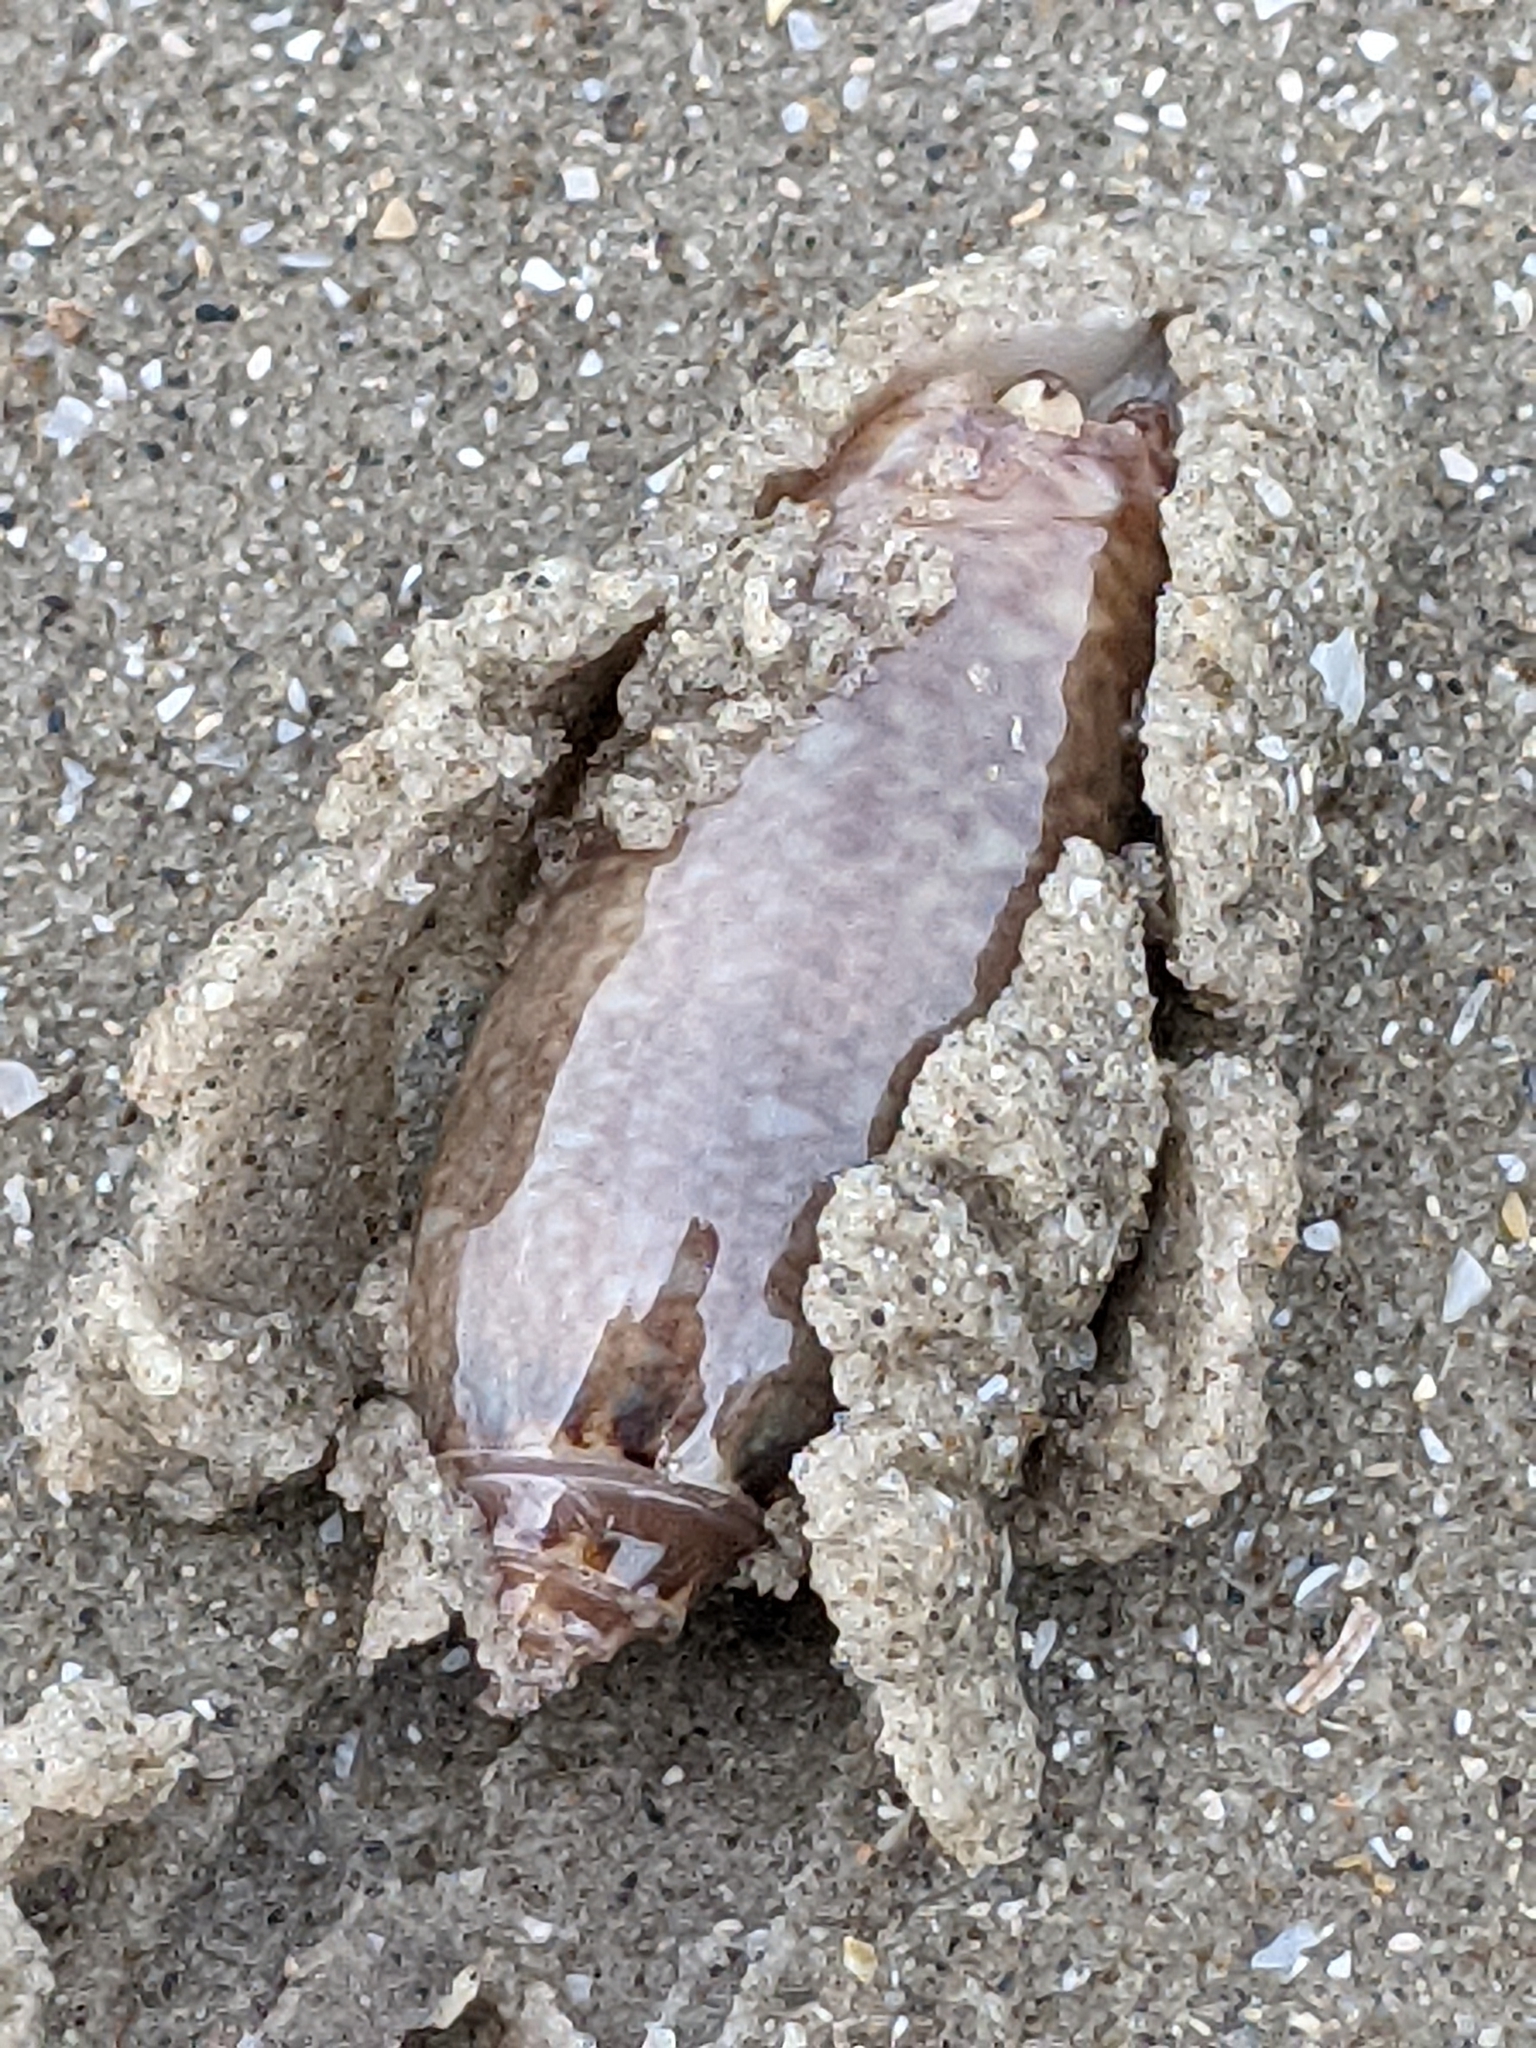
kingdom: Animalia
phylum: Mollusca
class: Gastropoda
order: Neogastropoda
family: Olividae
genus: Oliva
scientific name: Oliva sayana
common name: Lettered olive
